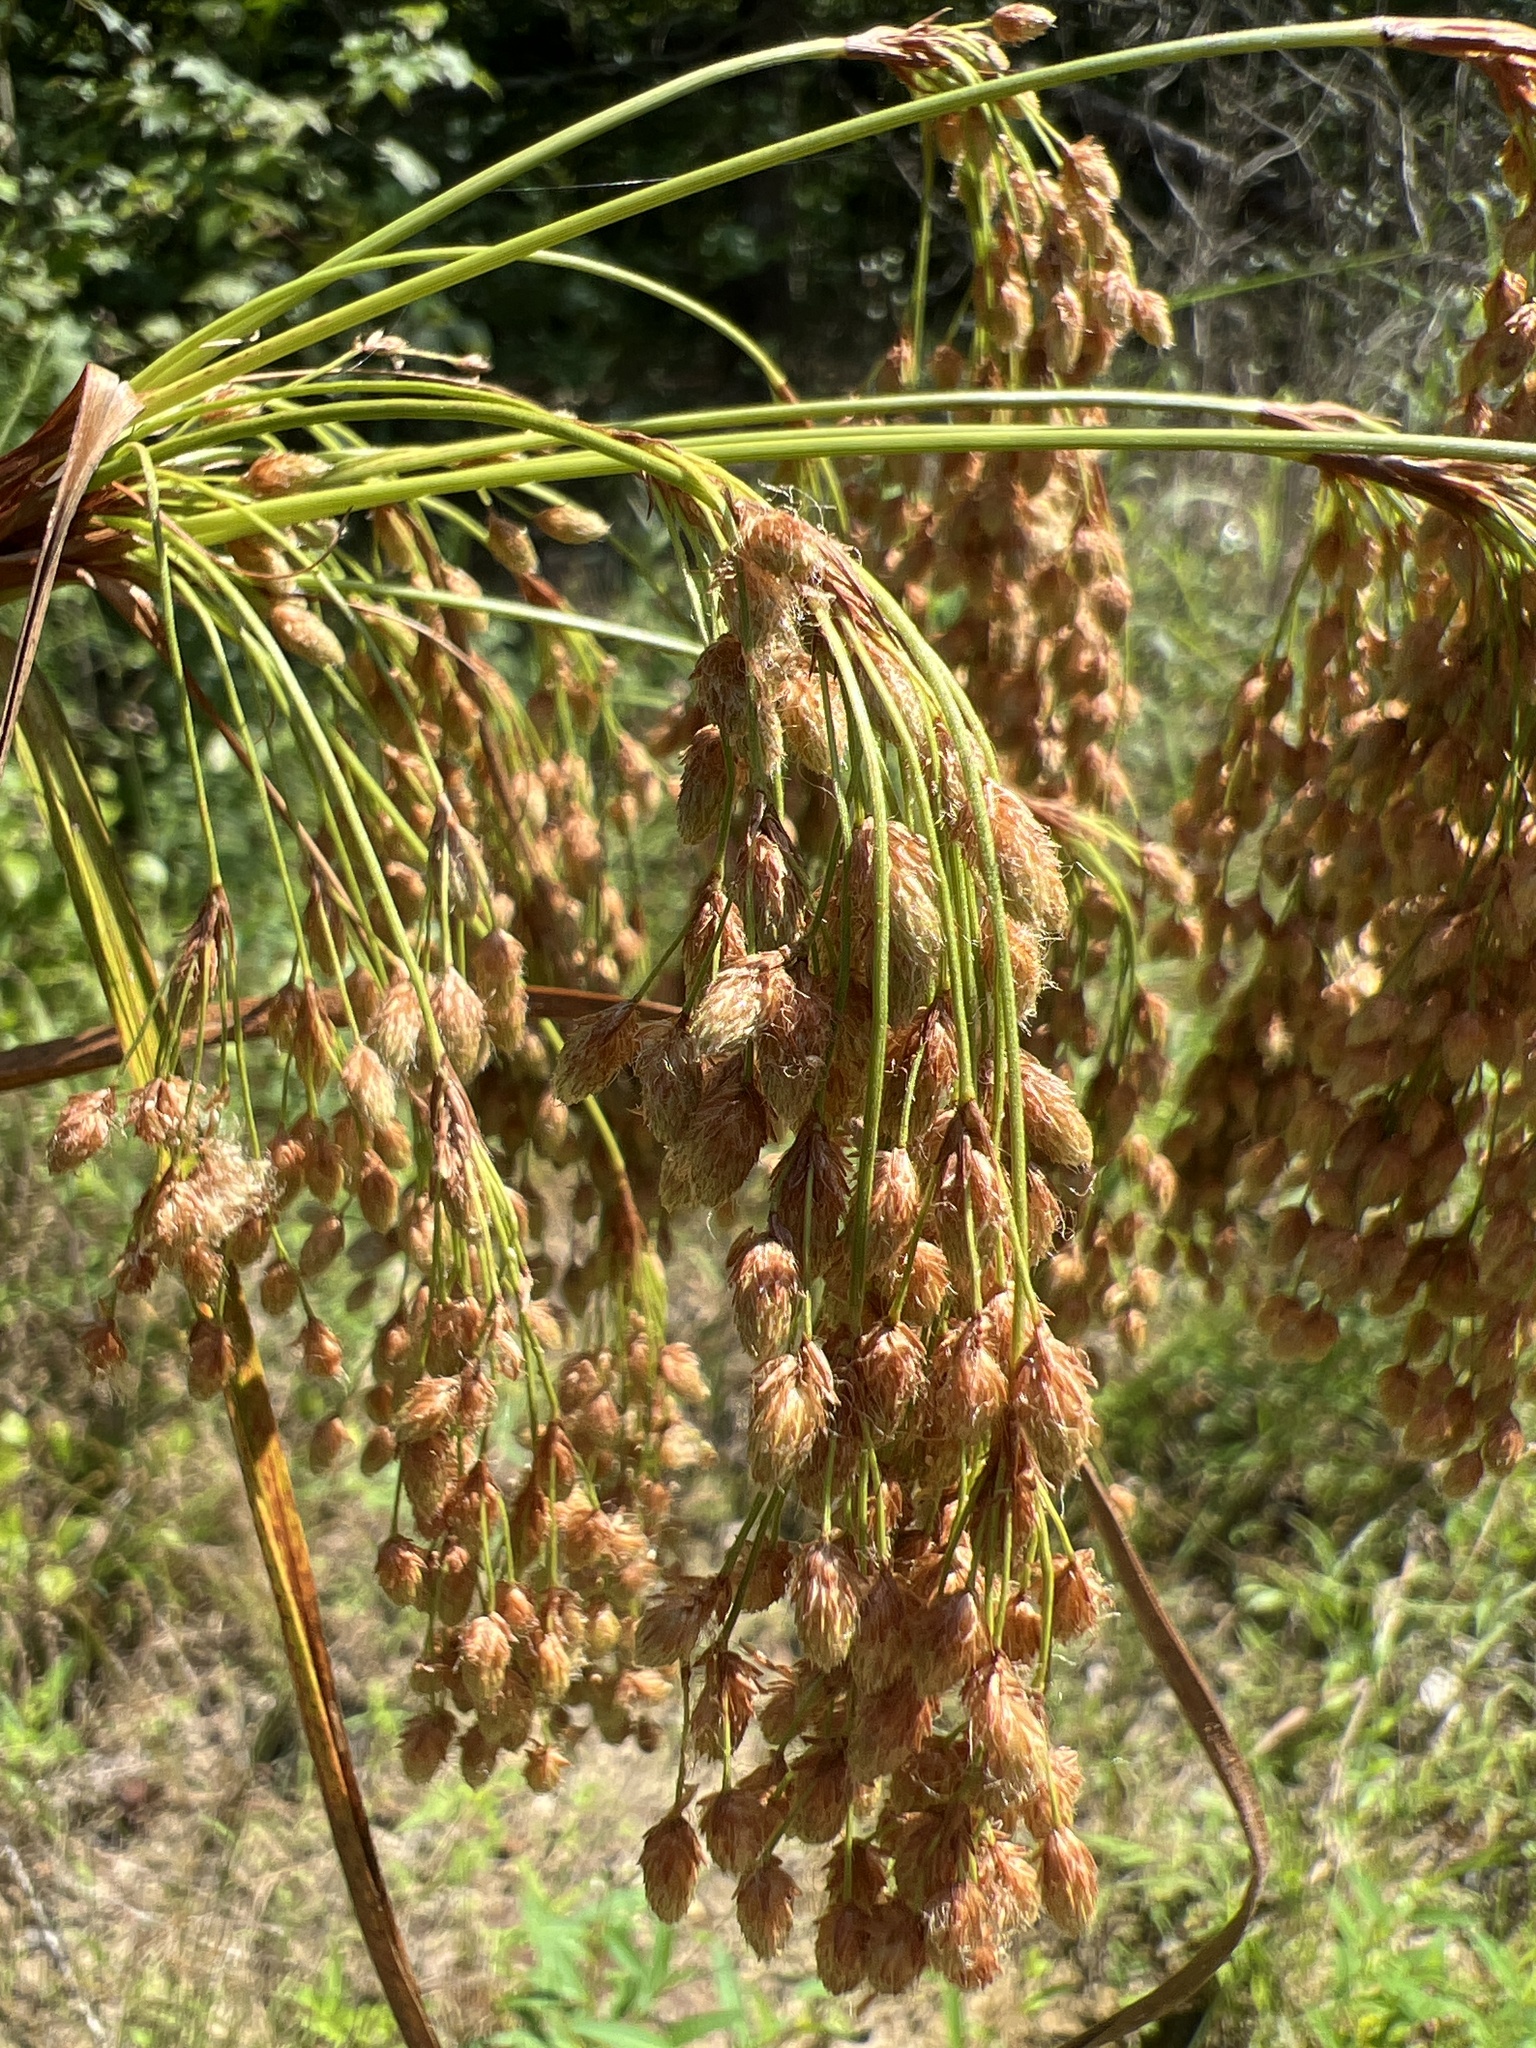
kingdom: Plantae
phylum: Tracheophyta
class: Liliopsida
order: Poales
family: Cyperaceae
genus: Scirpus
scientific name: Scirpus cyperinus
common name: Black-sheathed bulrush
